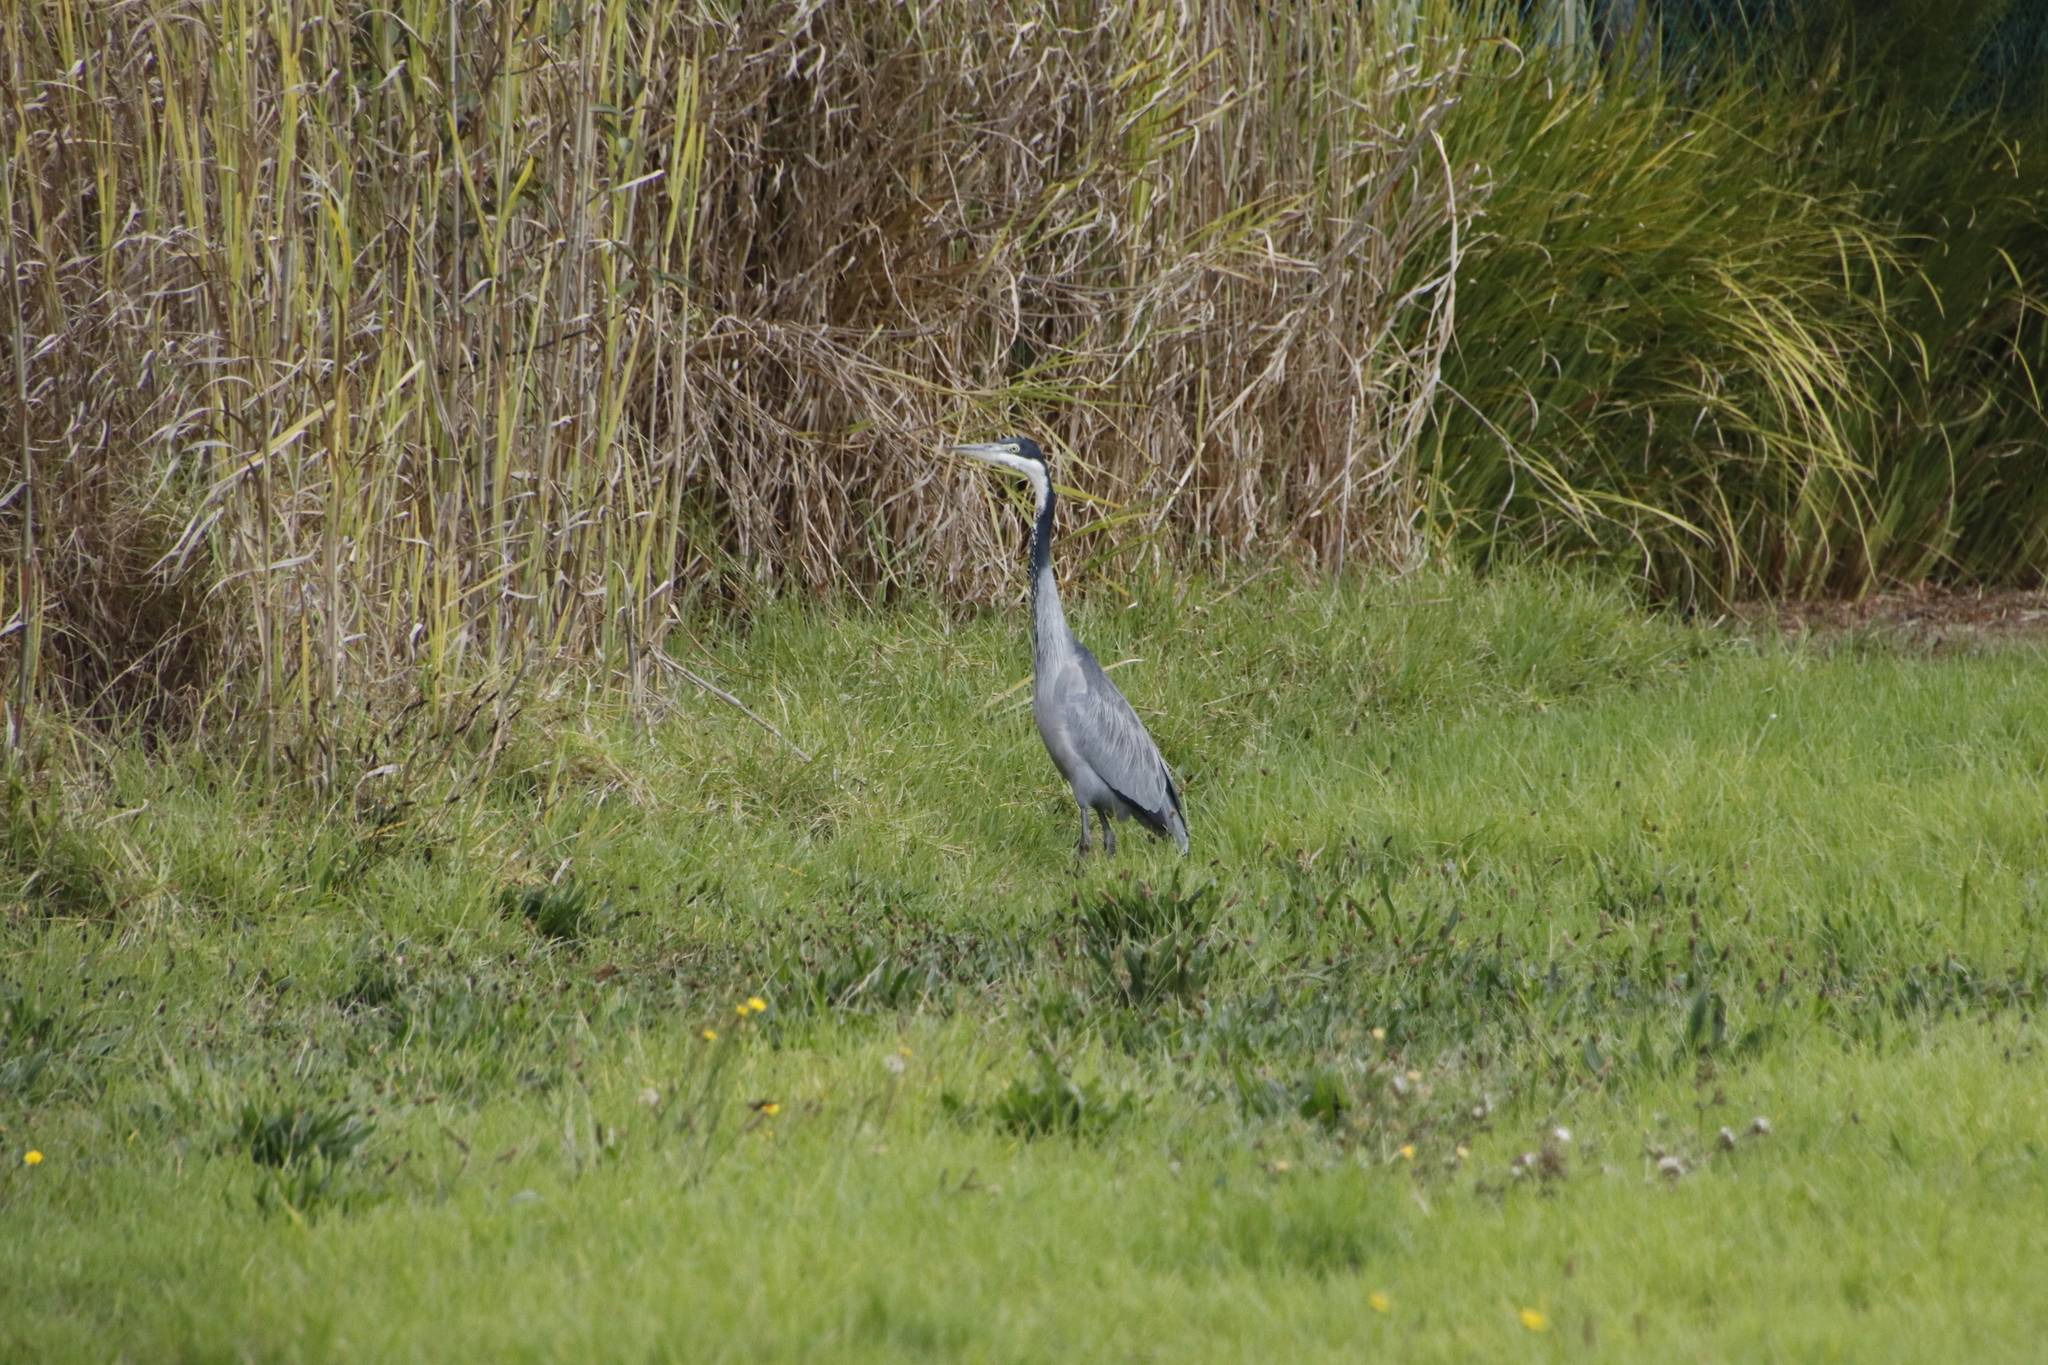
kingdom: Animalia
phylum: Chordata
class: Aves
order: Pelecaniformes
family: Ardeidae
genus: Ardea
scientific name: Ardea melanocephala
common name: Black-headed heron
